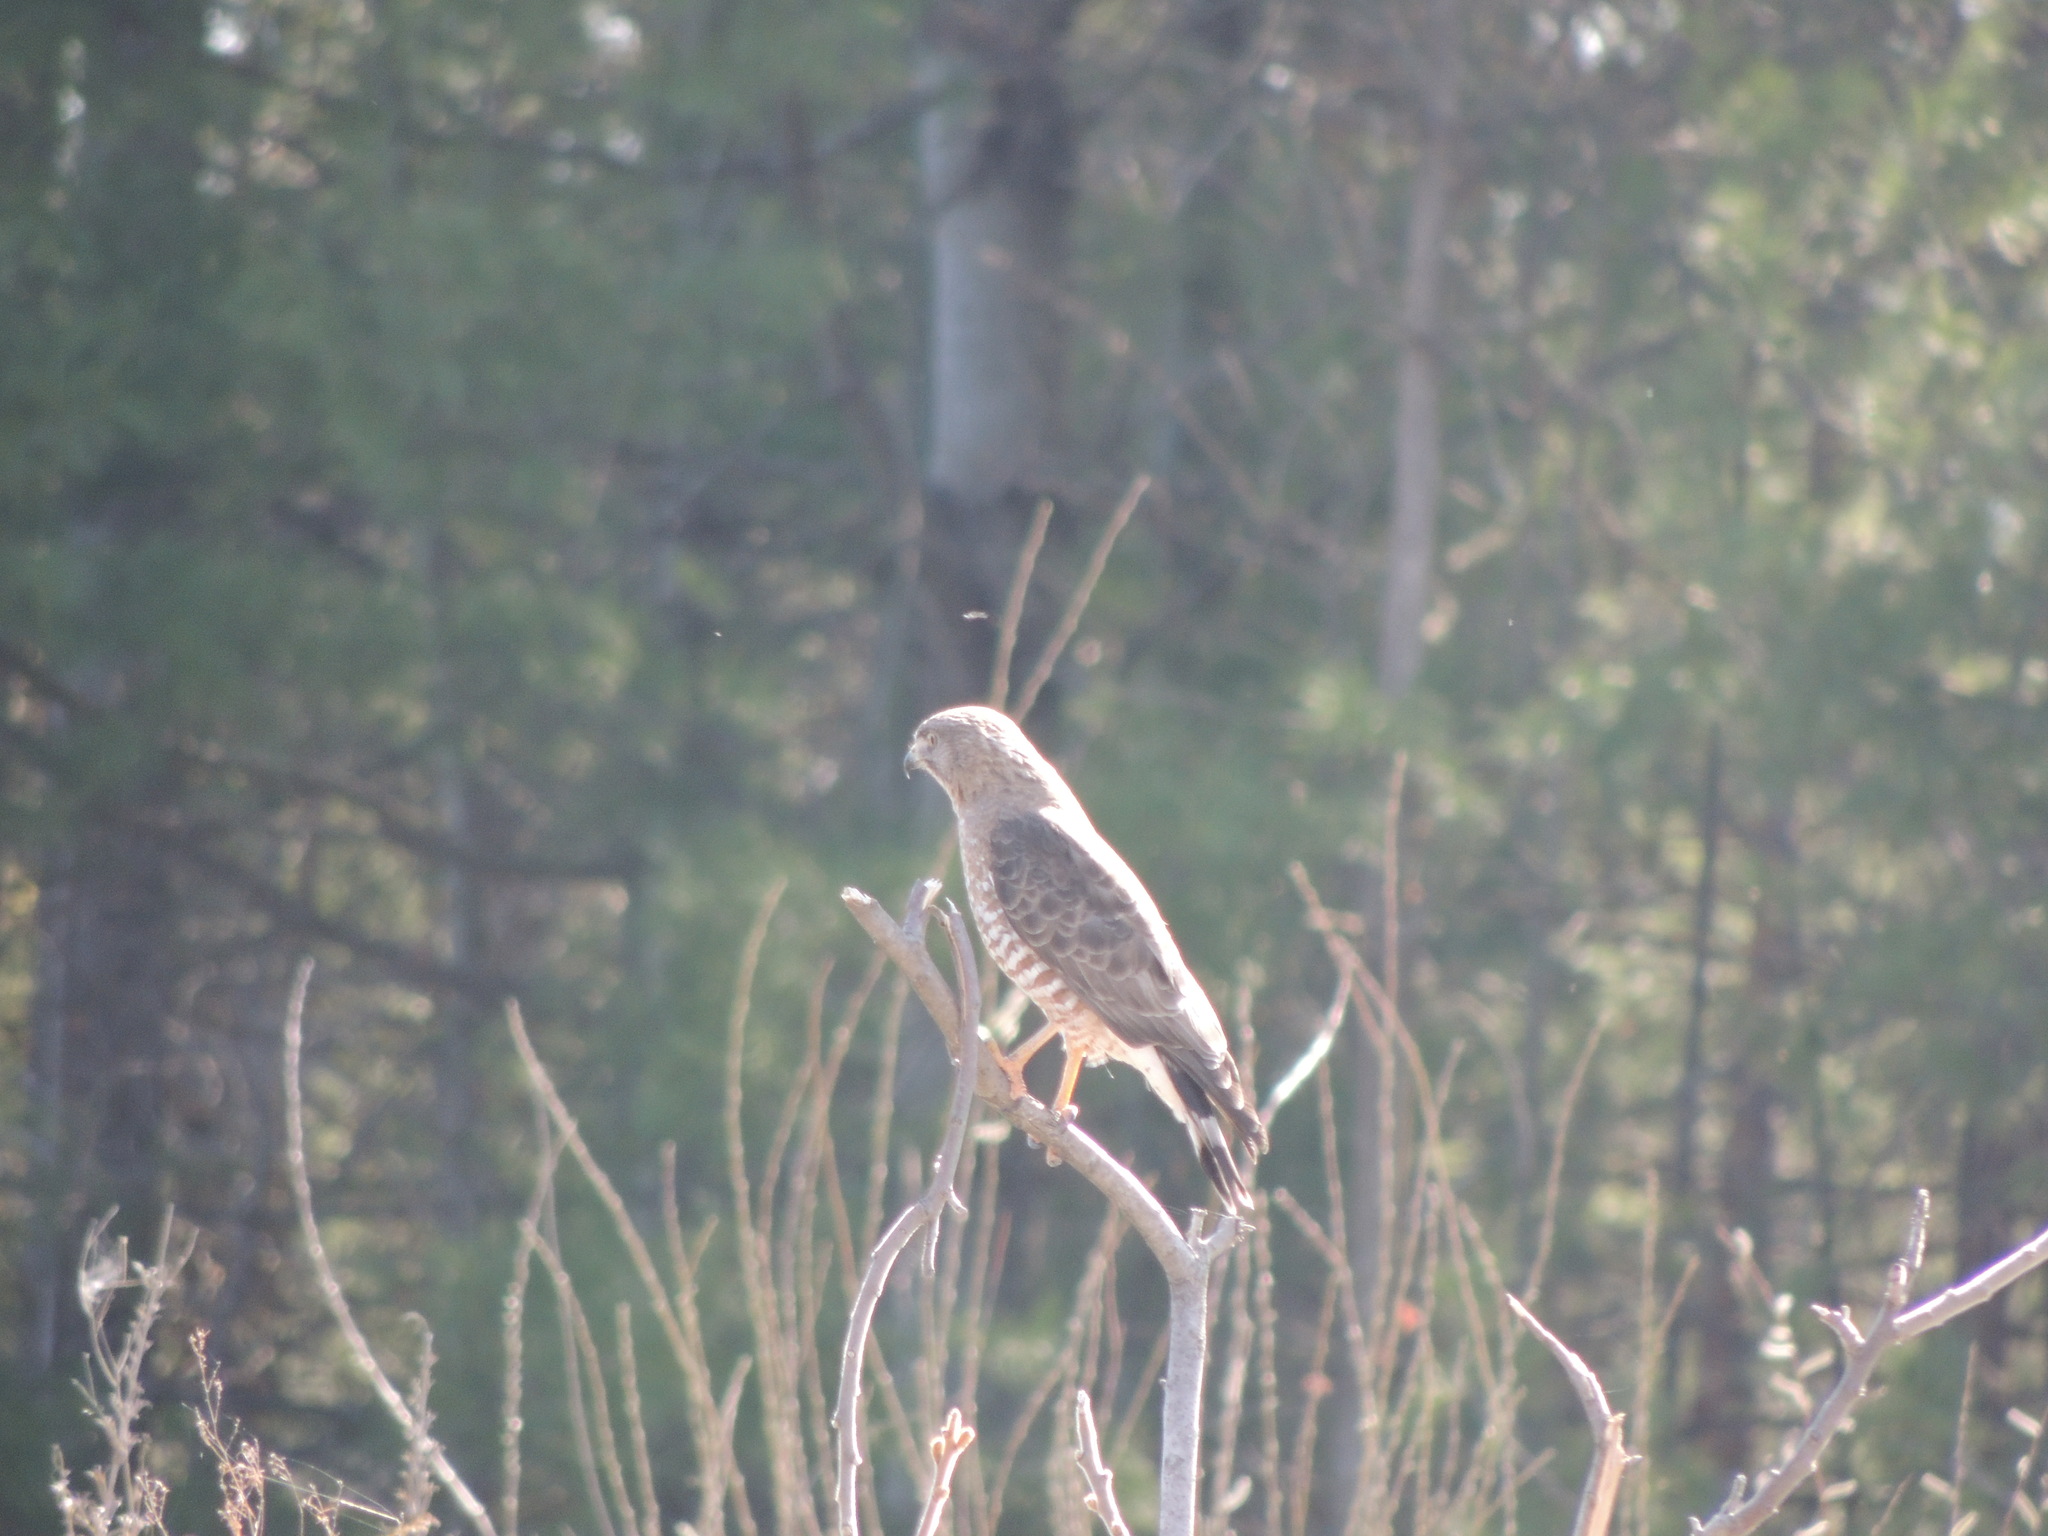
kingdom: Animalia
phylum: Chordata
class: Aves
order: Accipitriformes
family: Accipitridae
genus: Buteo
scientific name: Buteo platypterus
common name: Broad-winged hawk
